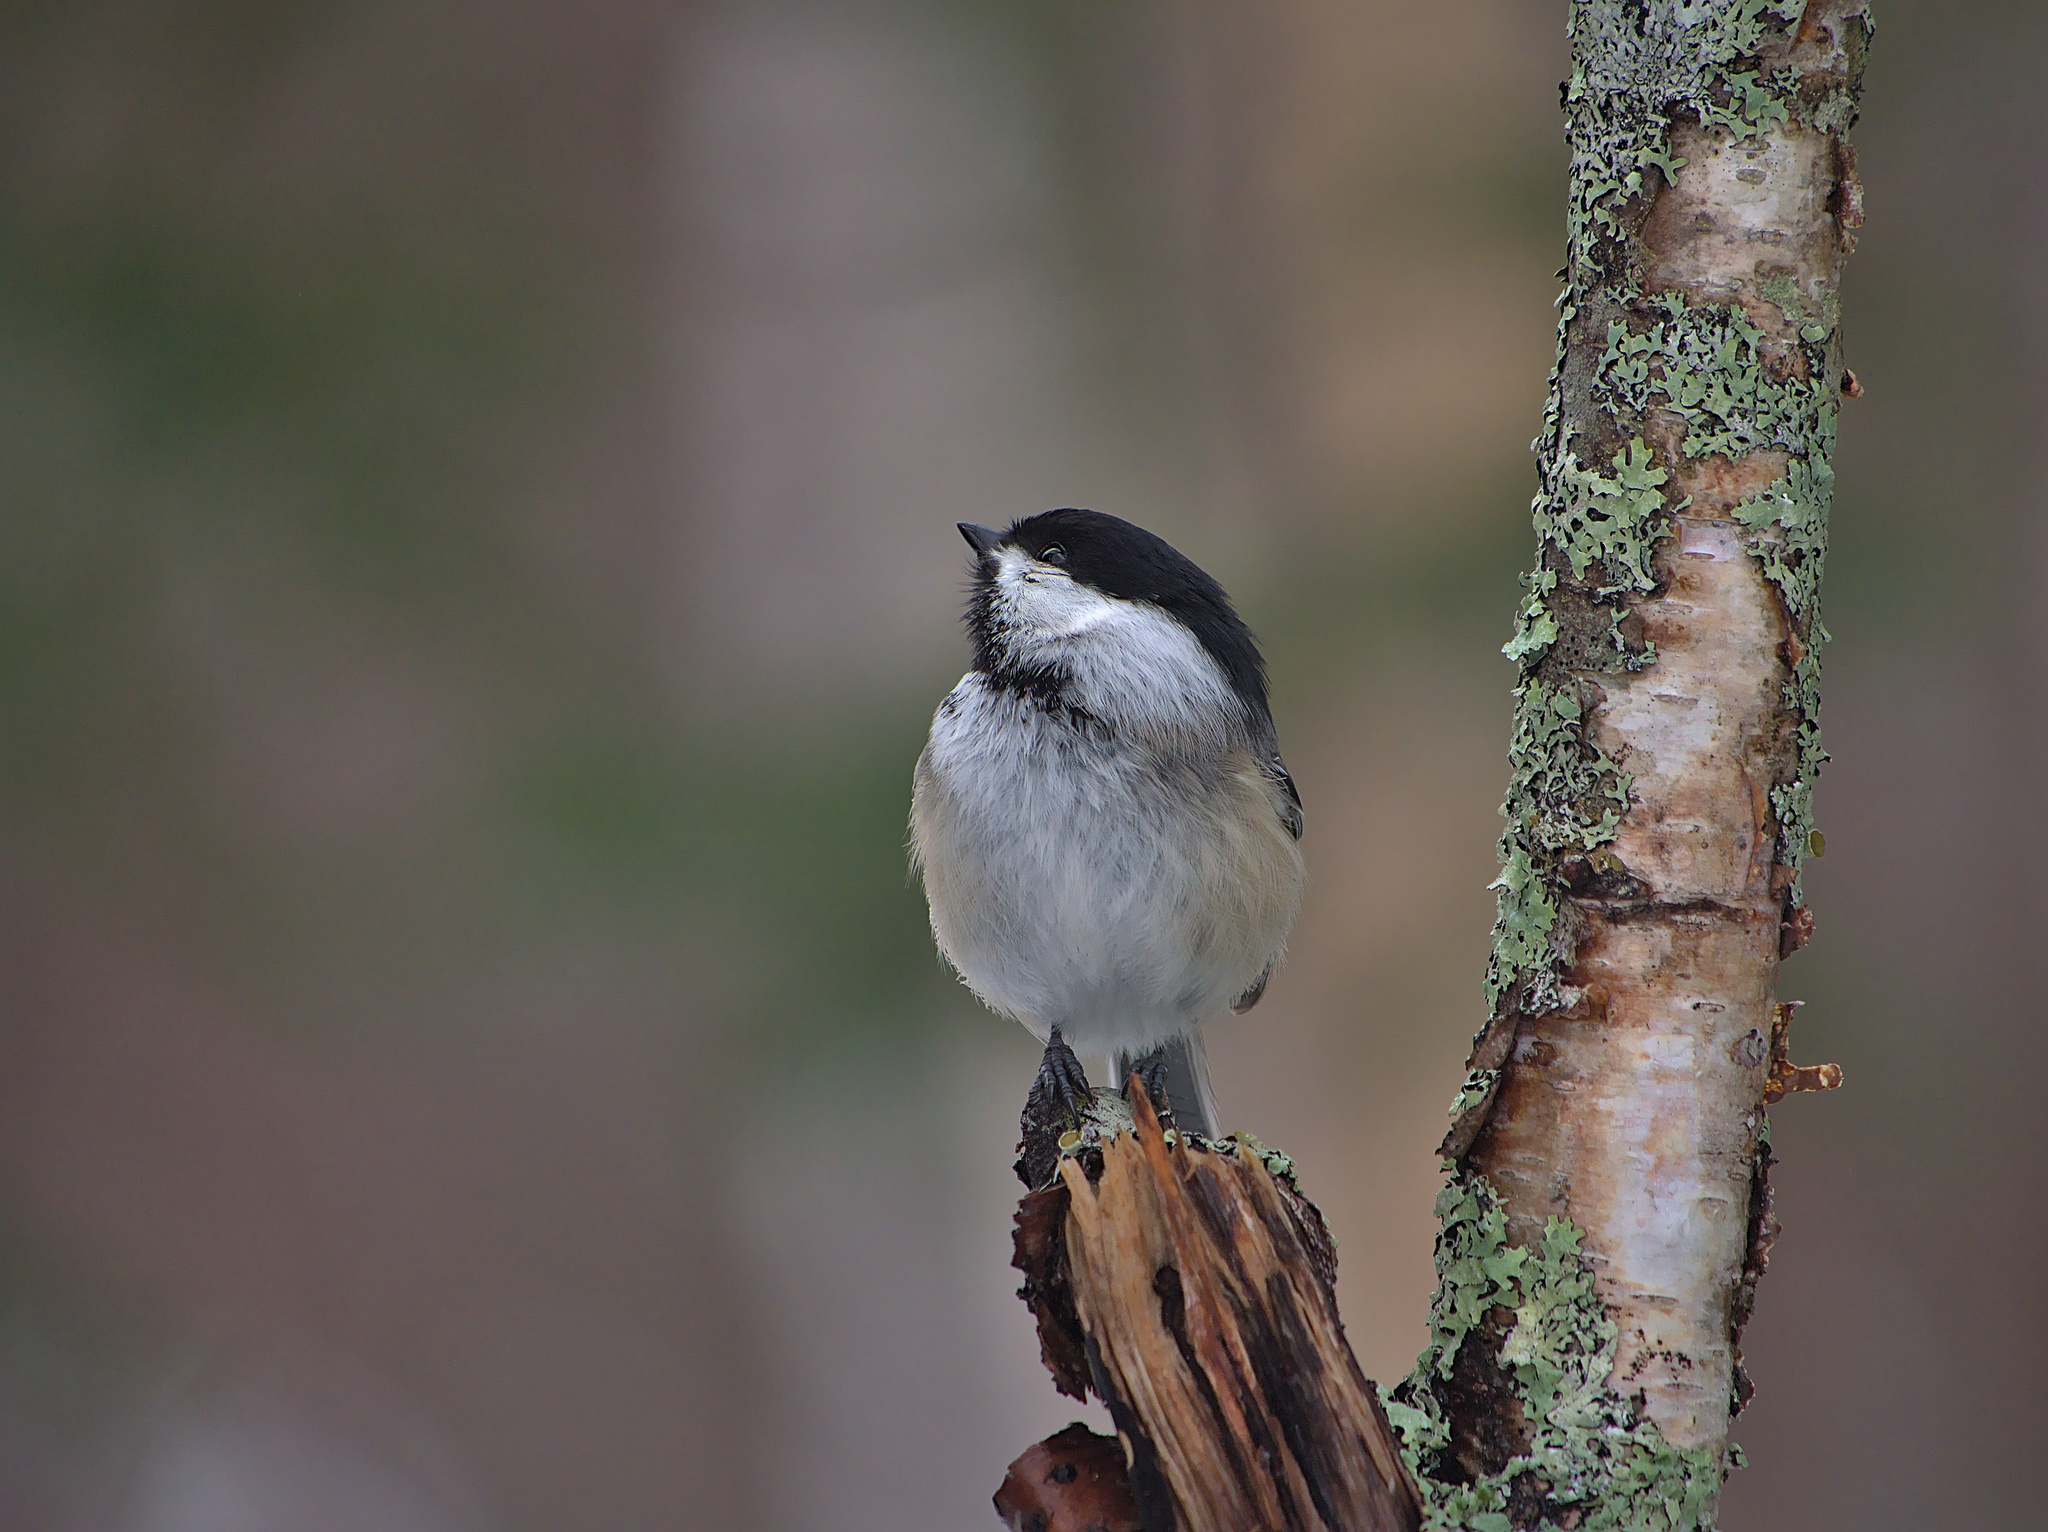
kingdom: Animalia
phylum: Chordata
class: Aves
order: Passeriformes
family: Paridae
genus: Poecile
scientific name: Poecile atricapillus
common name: Black-capped chickadee
